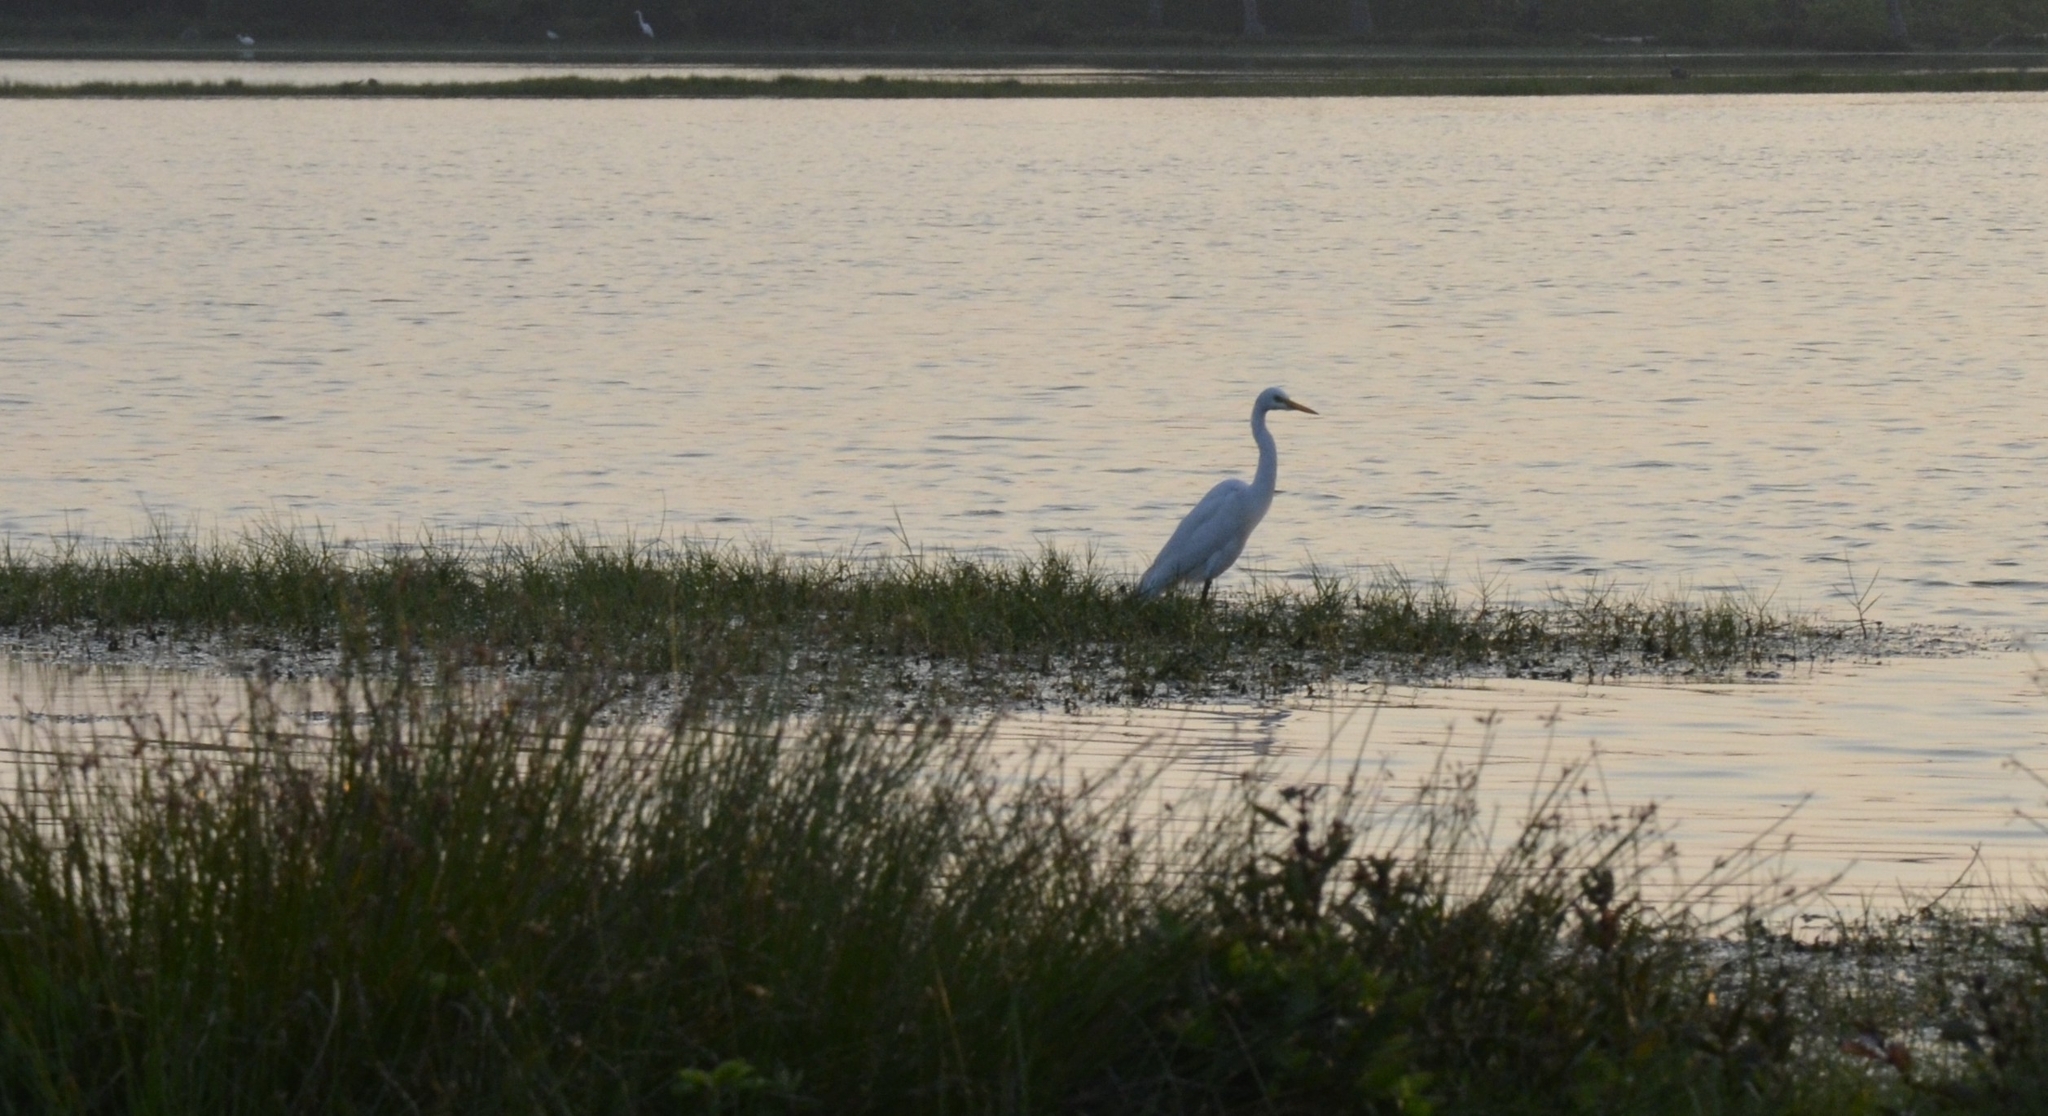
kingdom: Animalia
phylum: Chordata
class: Aves
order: Pelecaniformes
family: Ardeidae
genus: Egretta
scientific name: Egretta intermedia
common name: Intermediate egret
